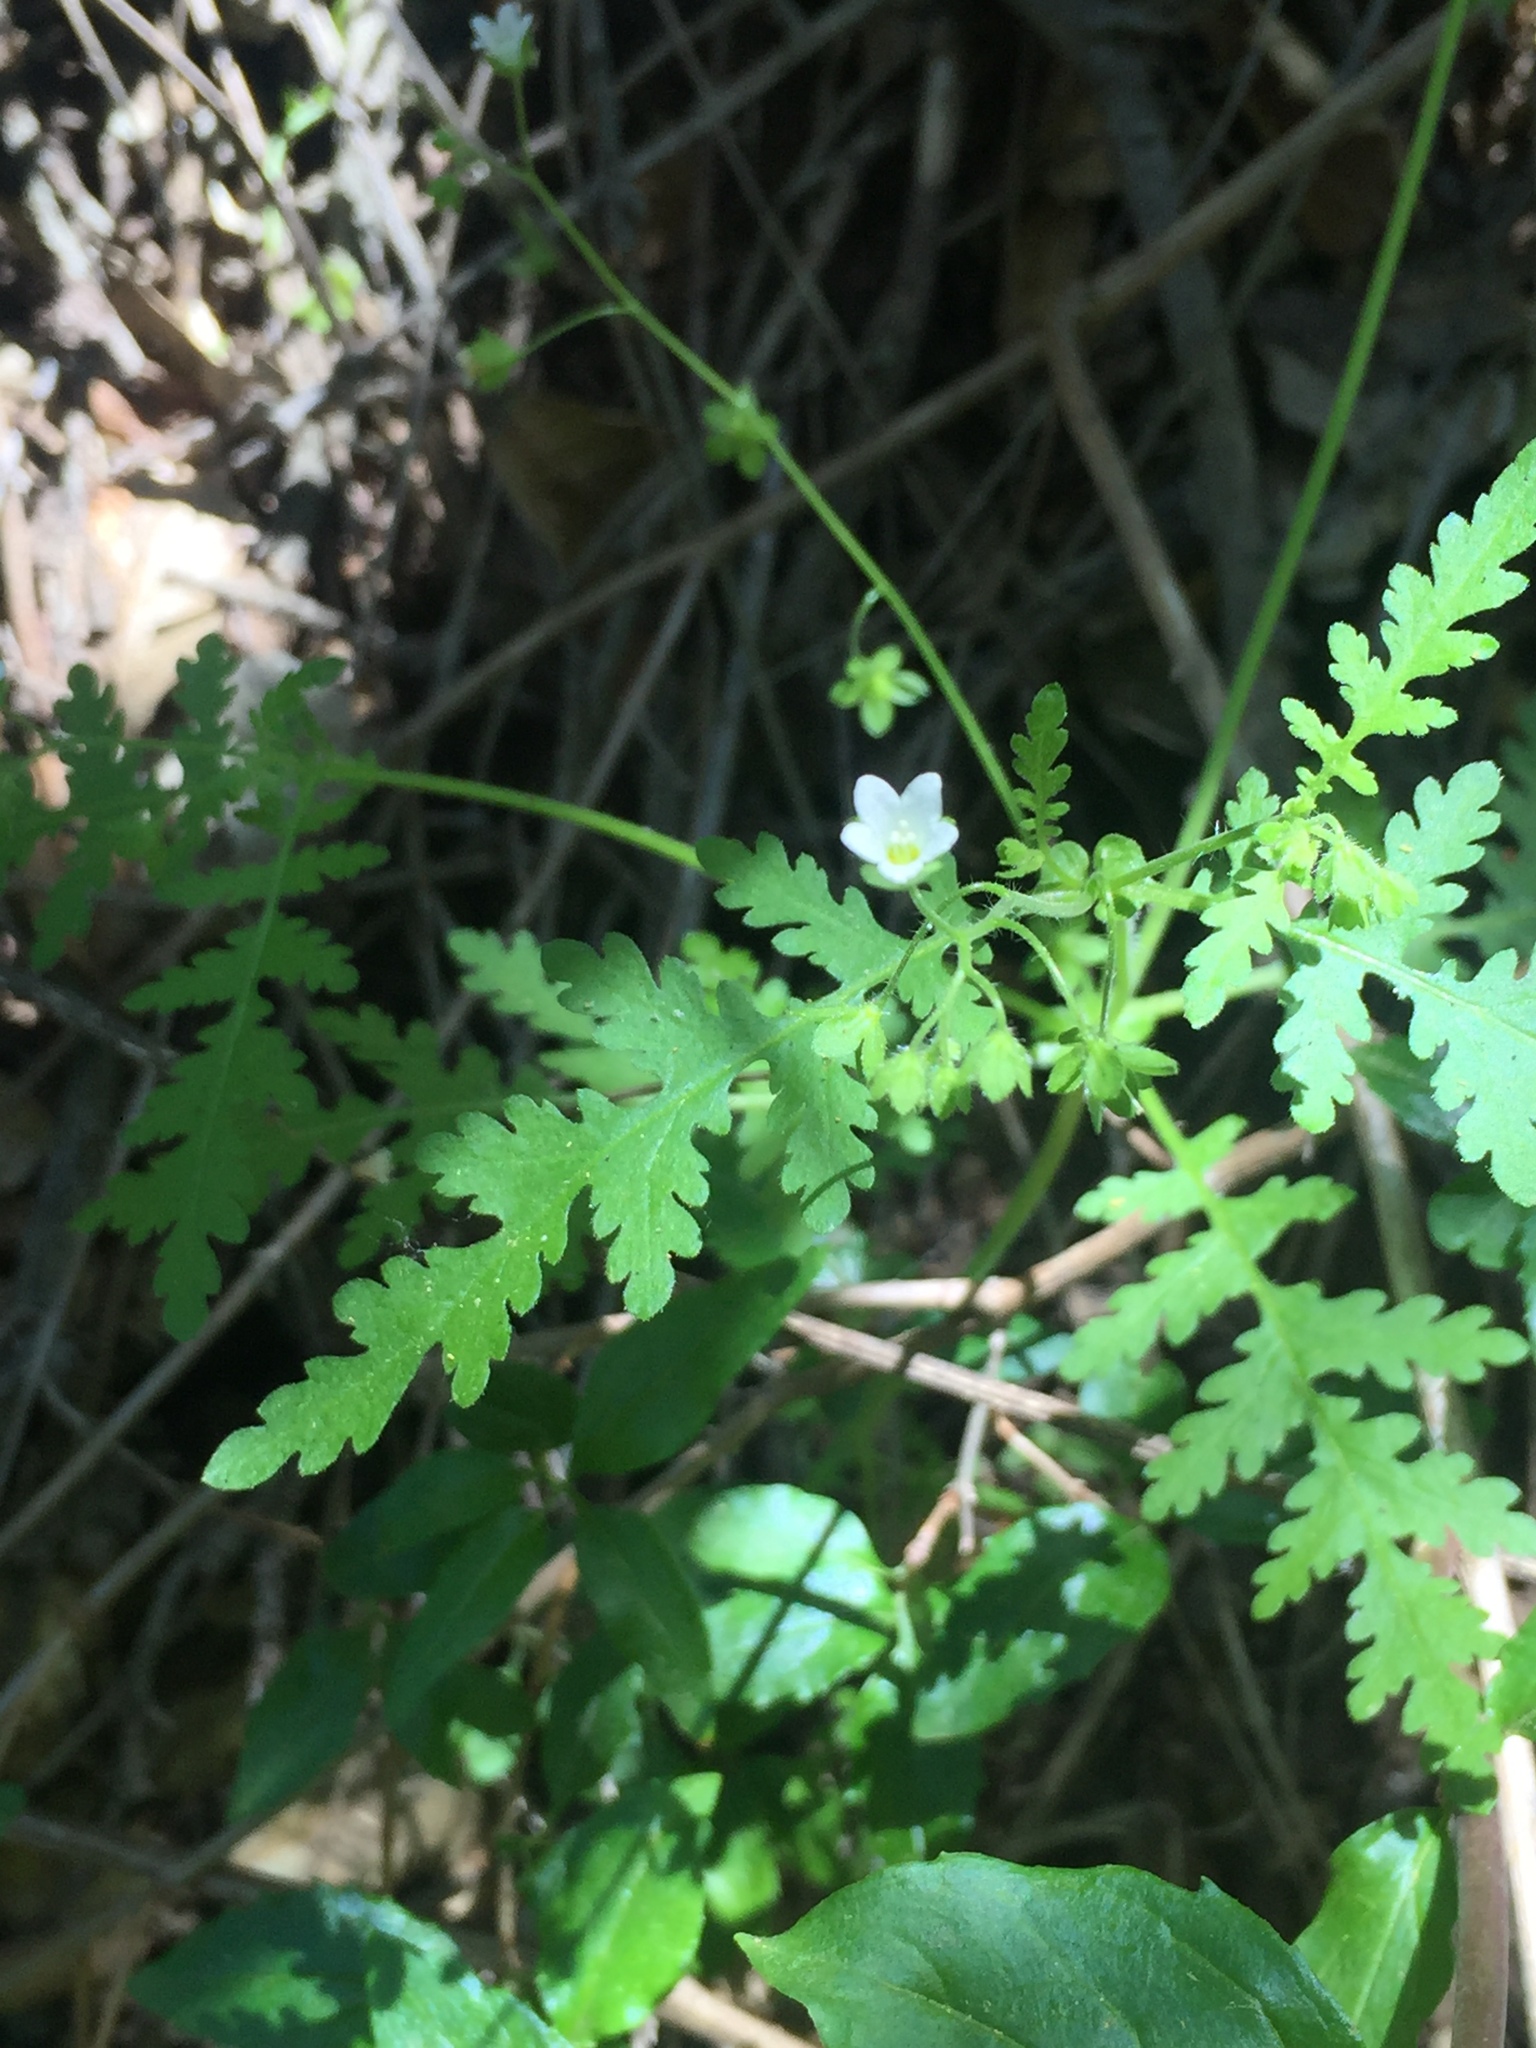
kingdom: Plantae
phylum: Tracheophyta
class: Magnoliopsida
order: Boraginales
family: Hydrophyllaceae
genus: Eucrypta
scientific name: Eucrypta chrysanthemifolia
